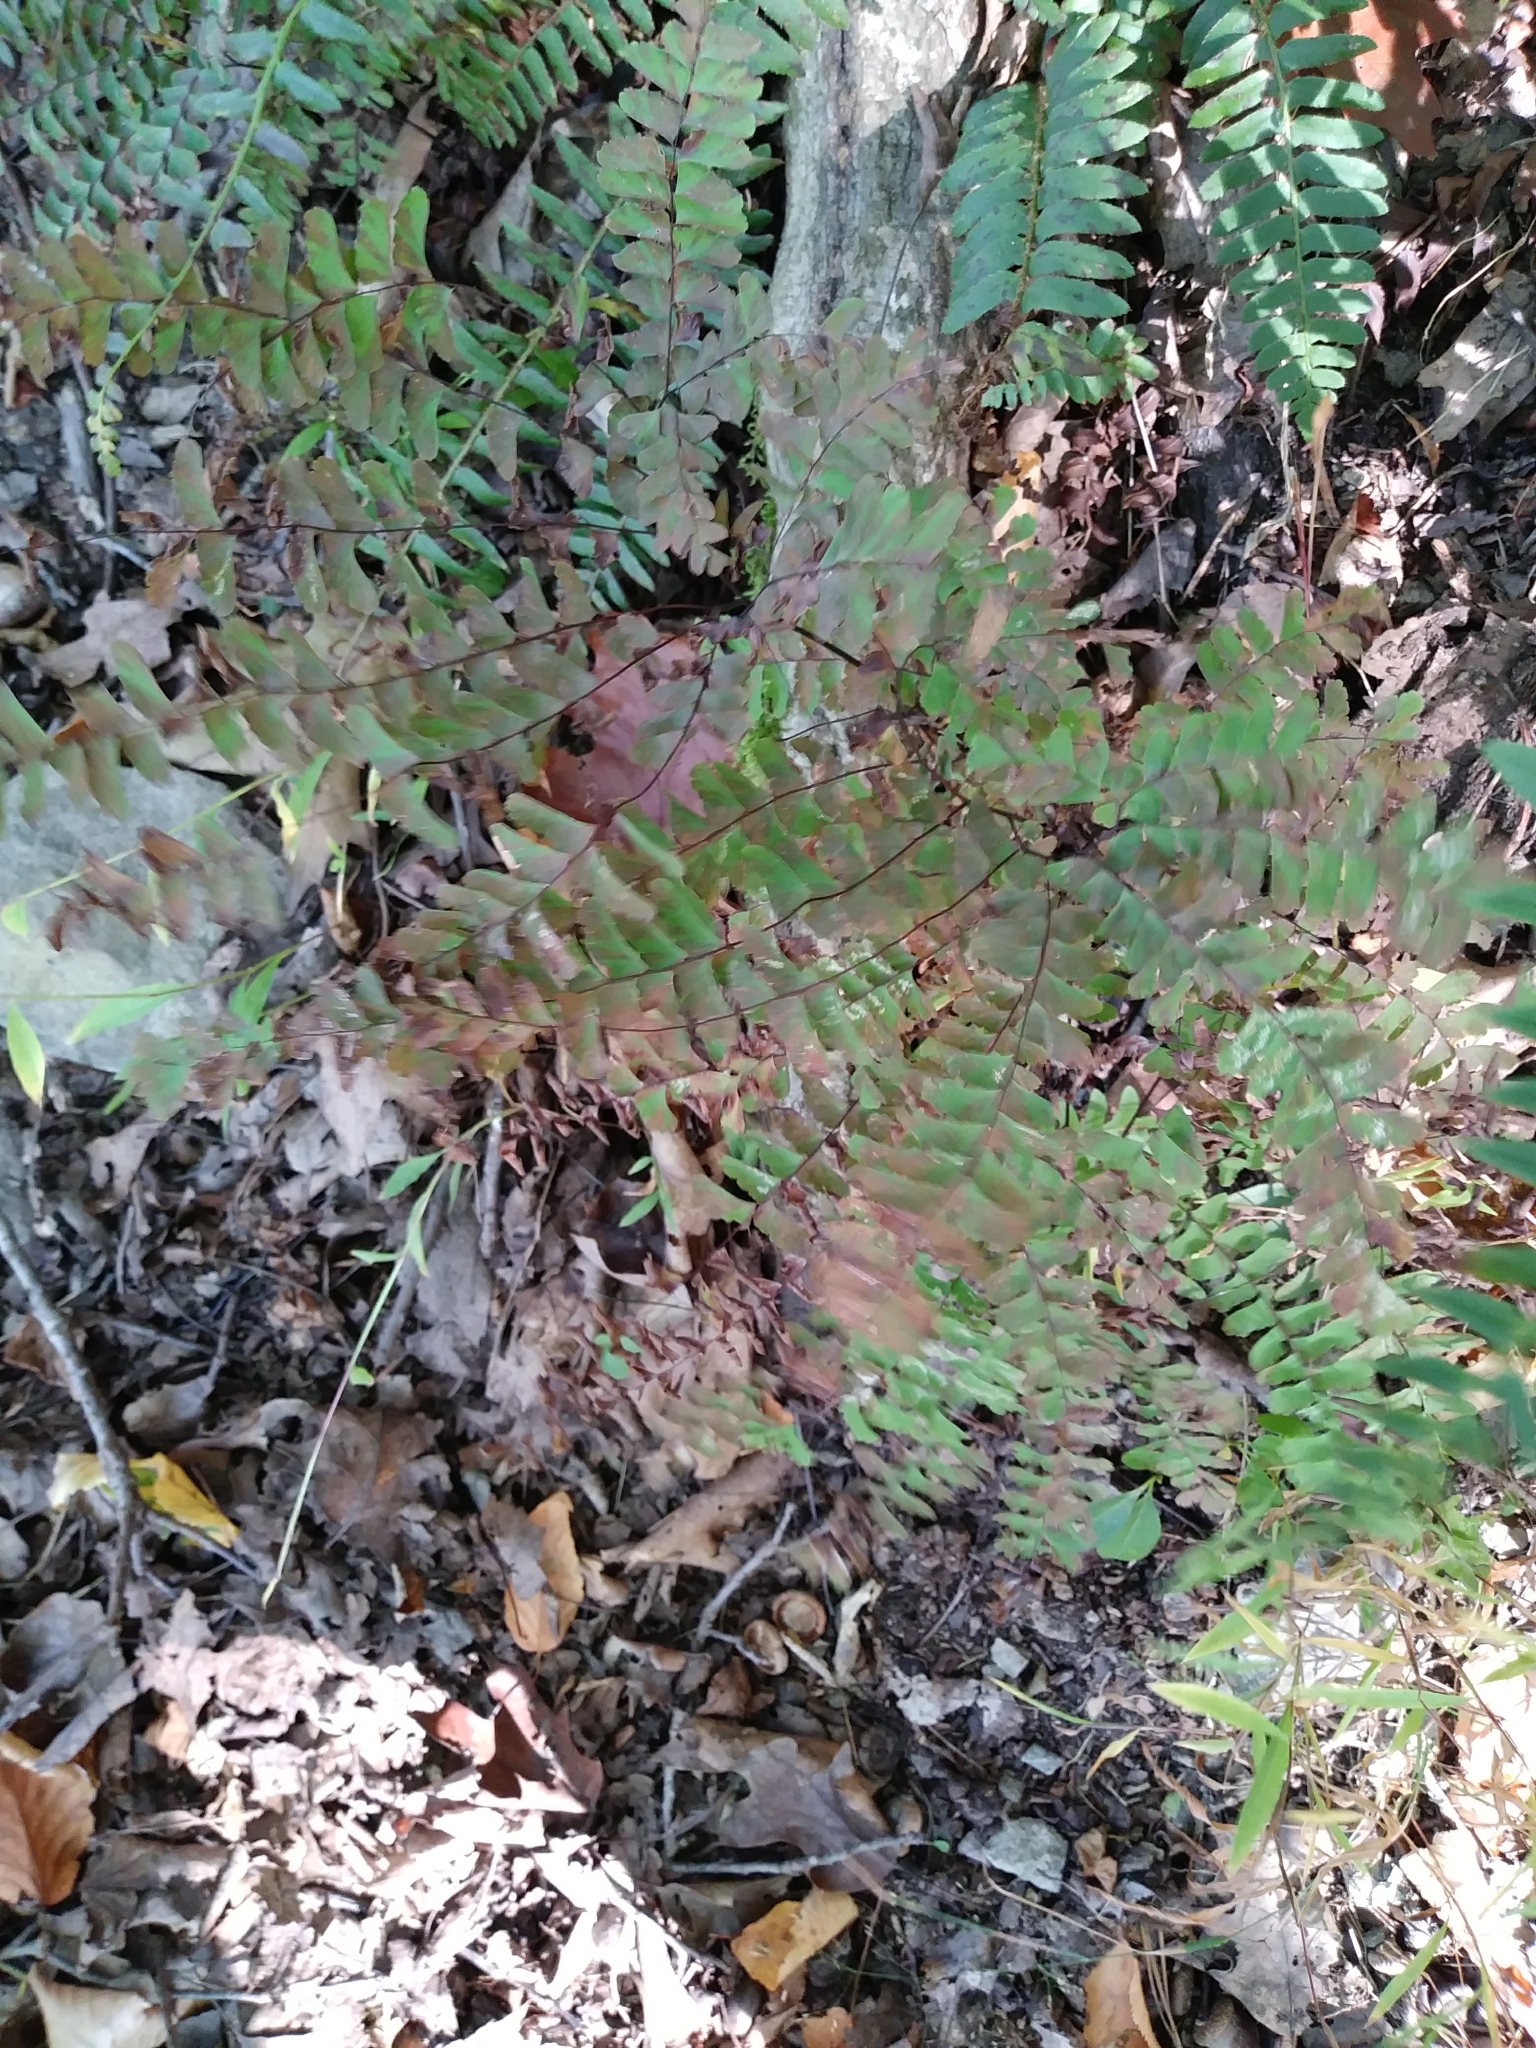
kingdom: Plantae
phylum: Tracheophyta
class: Polypodiopsida
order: Polypodiales
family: Pteridaceae
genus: Adiantum
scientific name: Adiantum pedatum
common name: Five-finger fern
